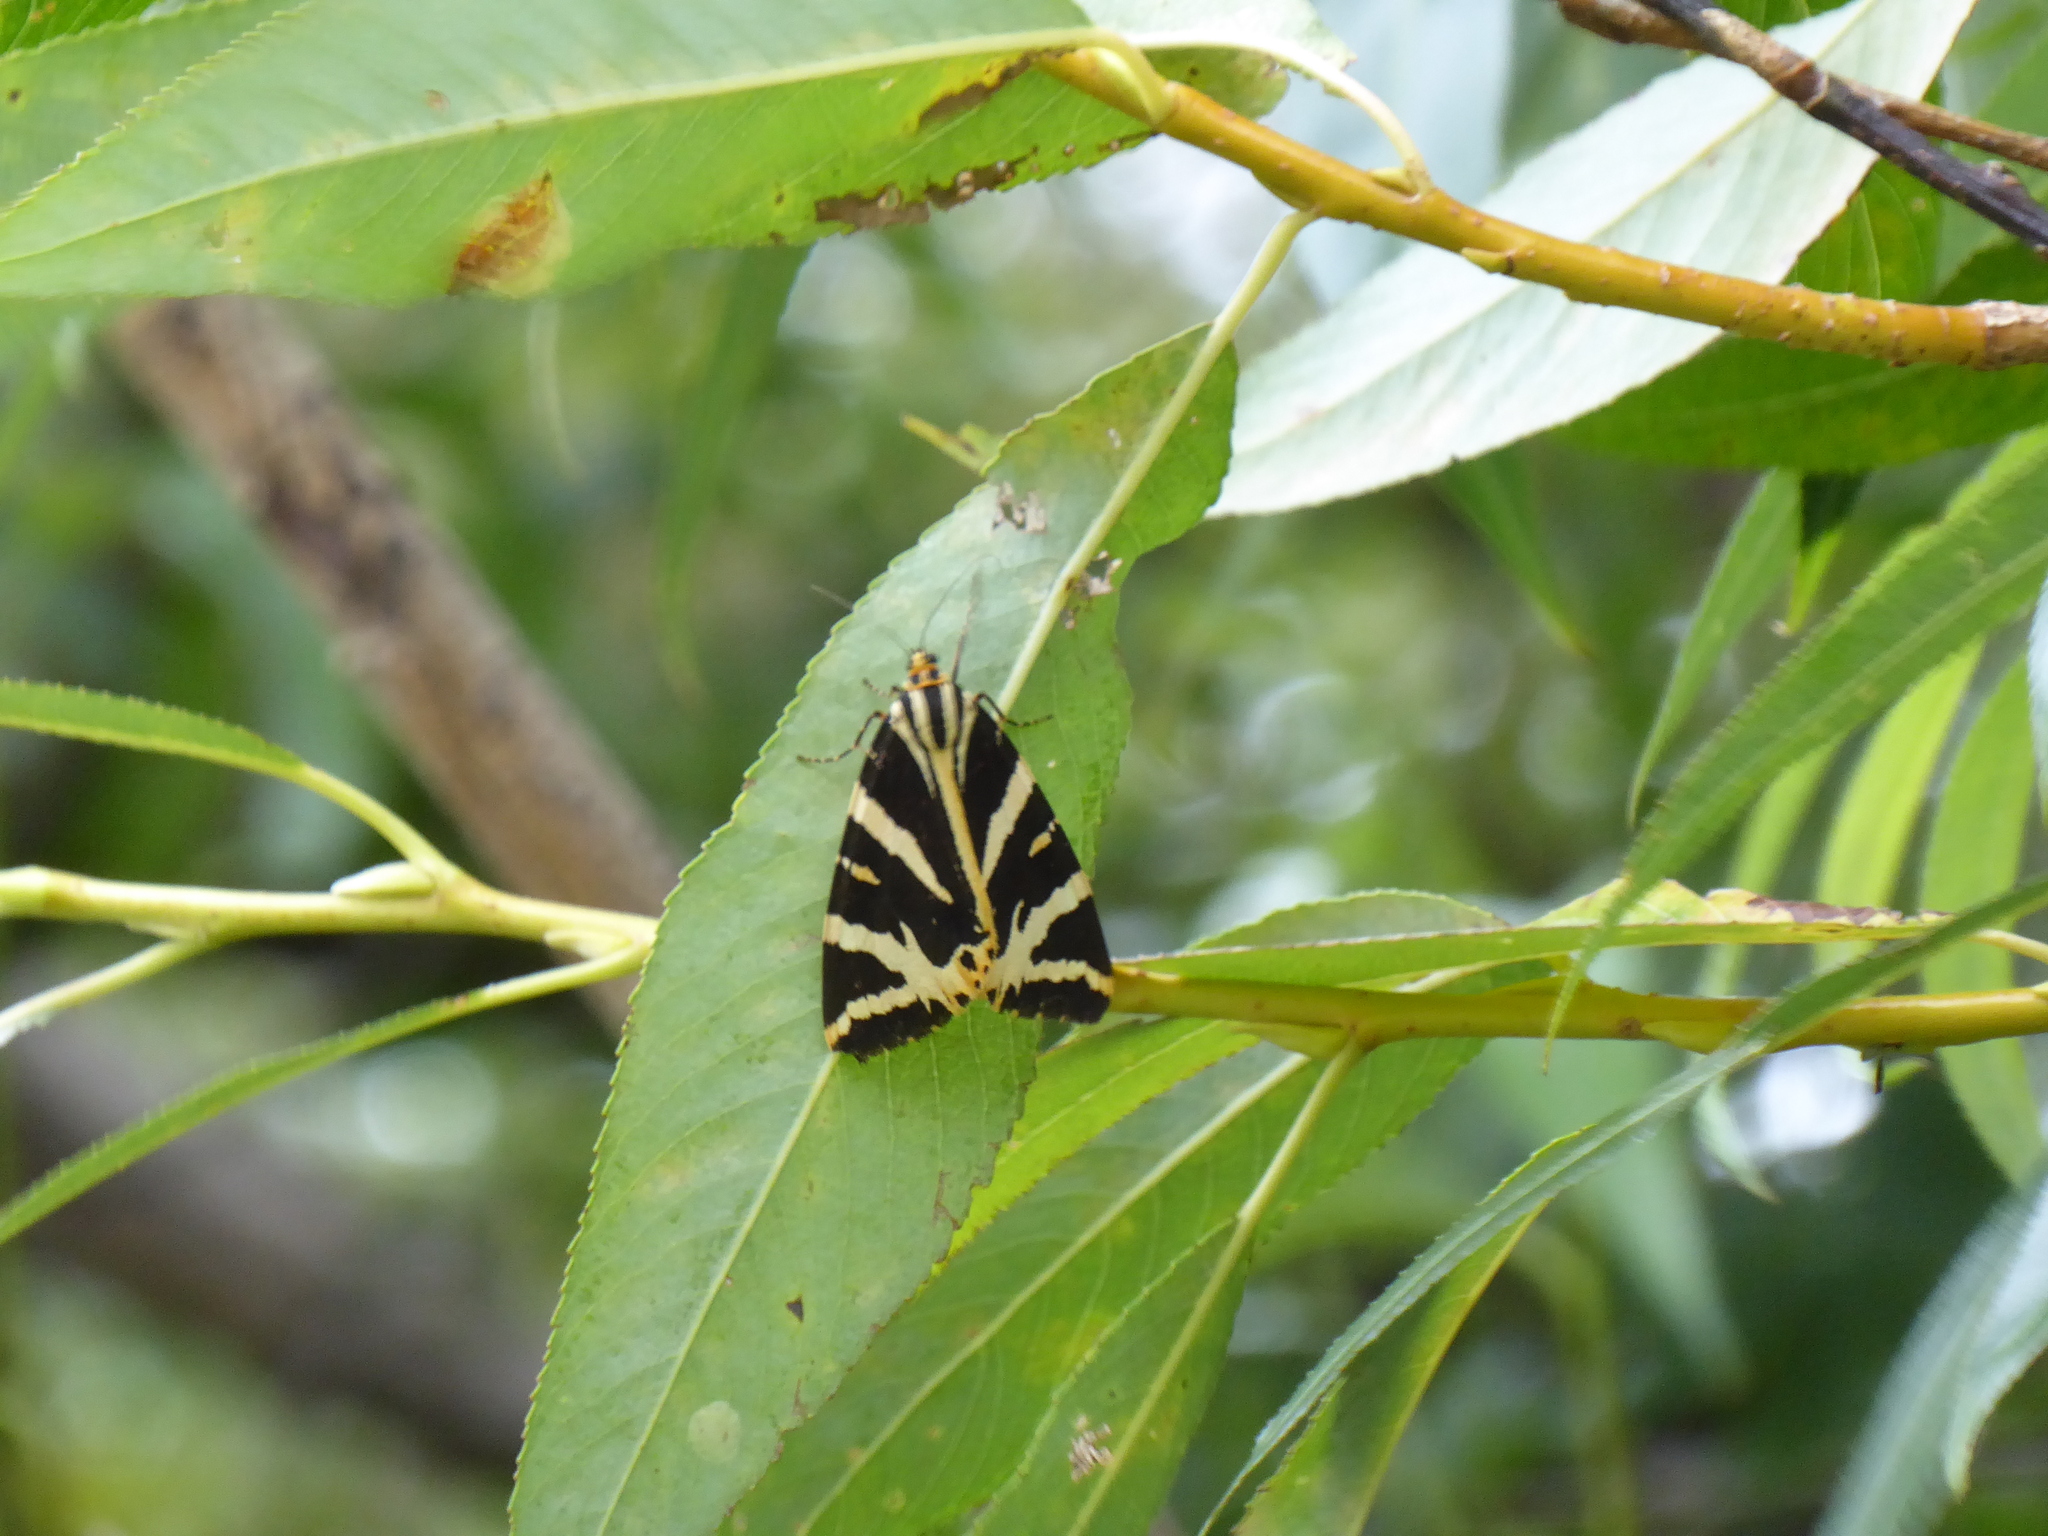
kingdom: Animalia
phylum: Arthropoda
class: Insecta
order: Lepidoptera
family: Erebidae
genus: Euplagia
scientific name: Euplagia quadripunctaria
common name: Jersey tiger
